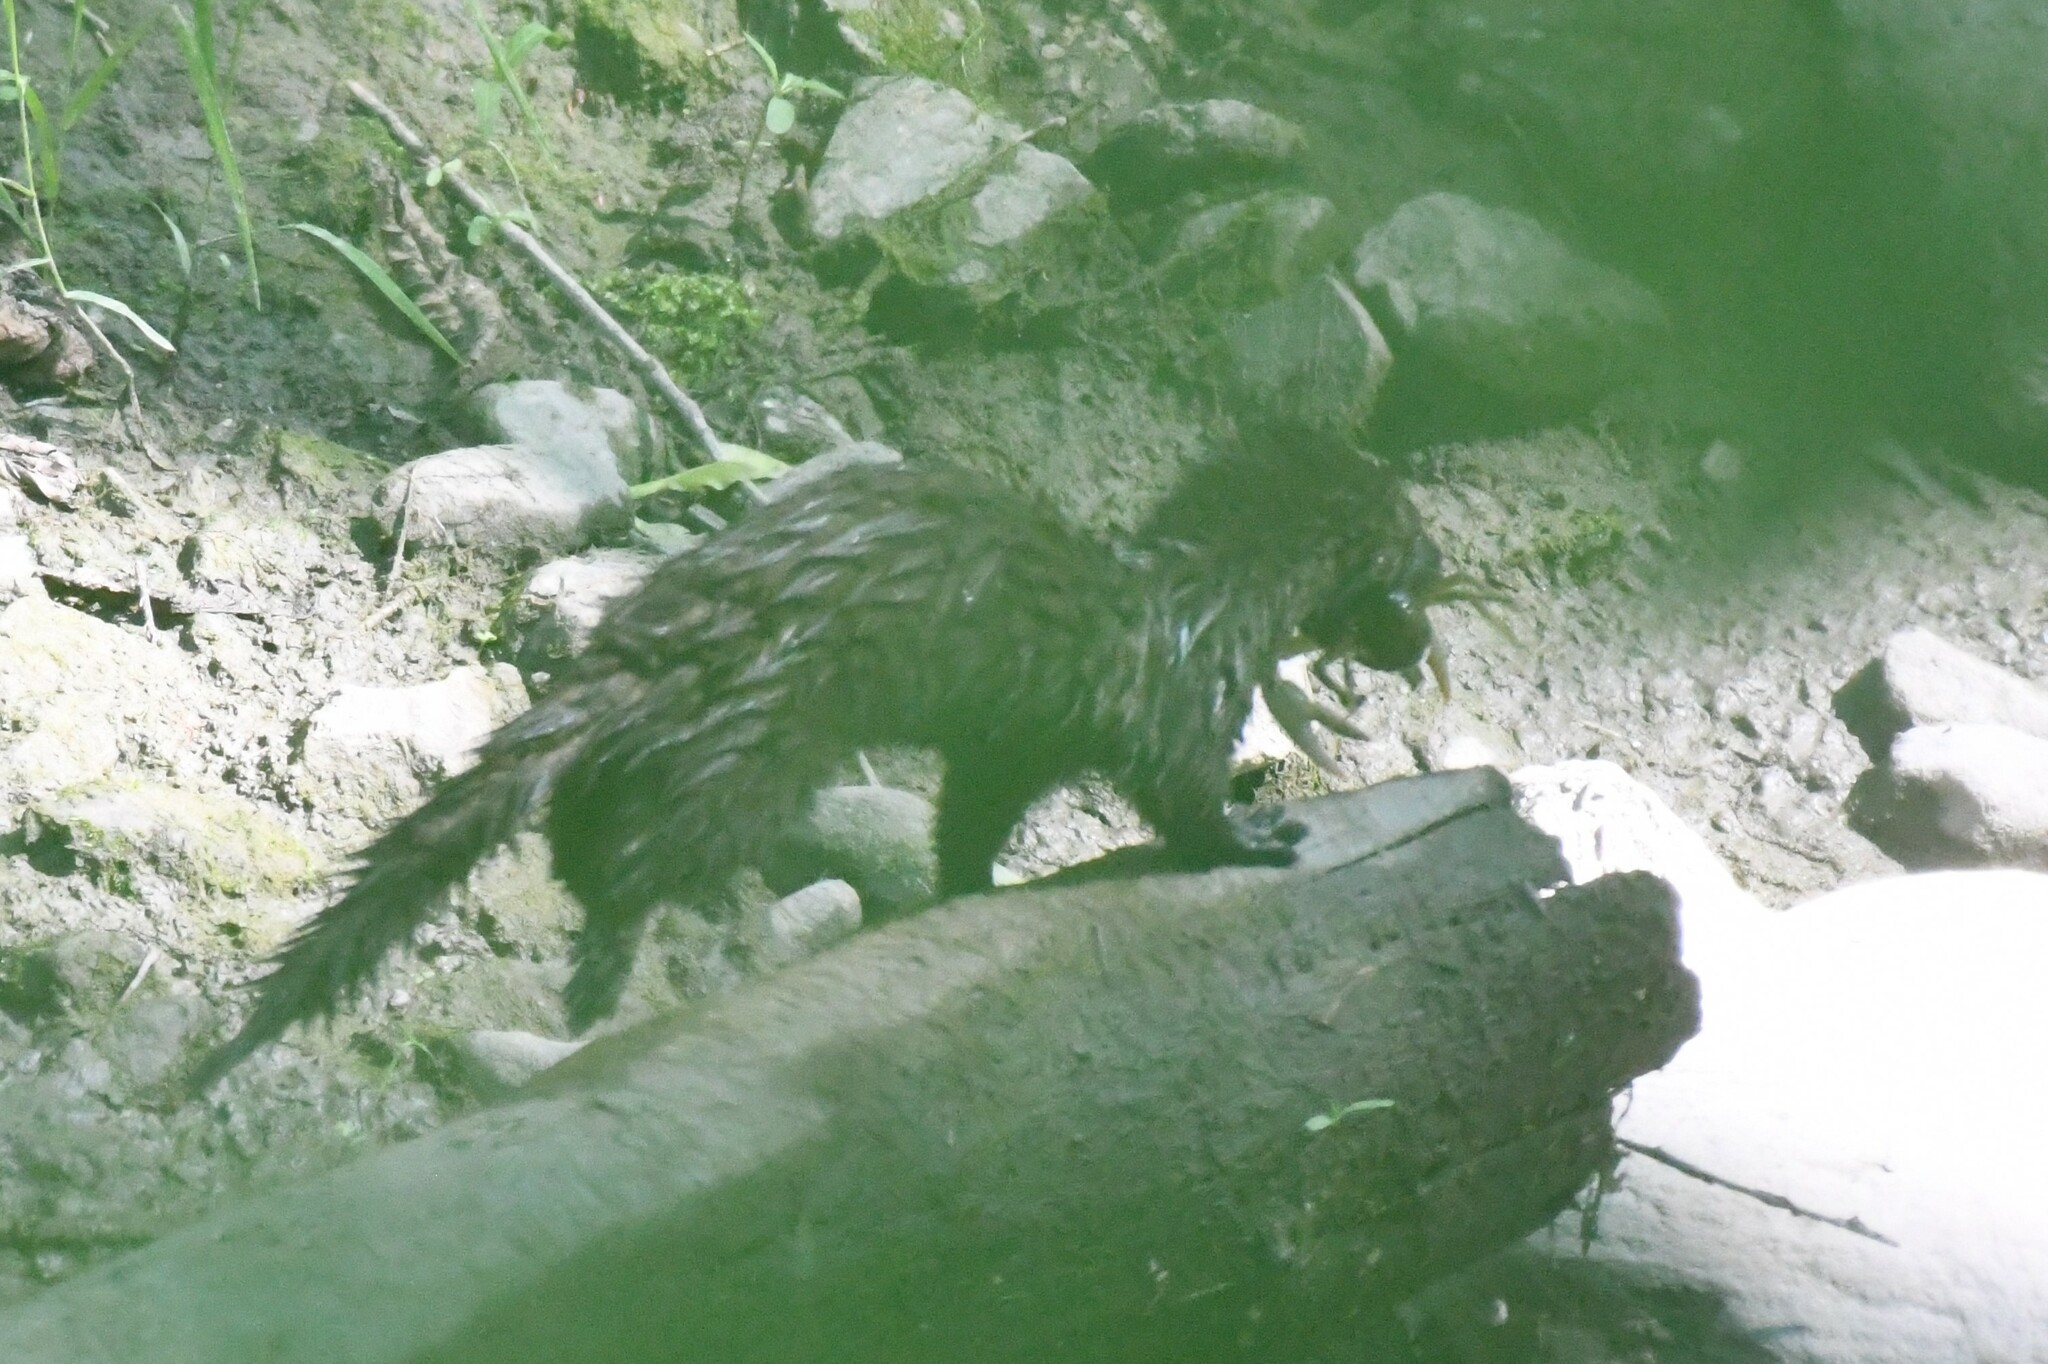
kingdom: Animalia
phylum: Chordata
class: Mammalia
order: Carnivora
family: Mustelidae
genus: Mustela
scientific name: Mustela
